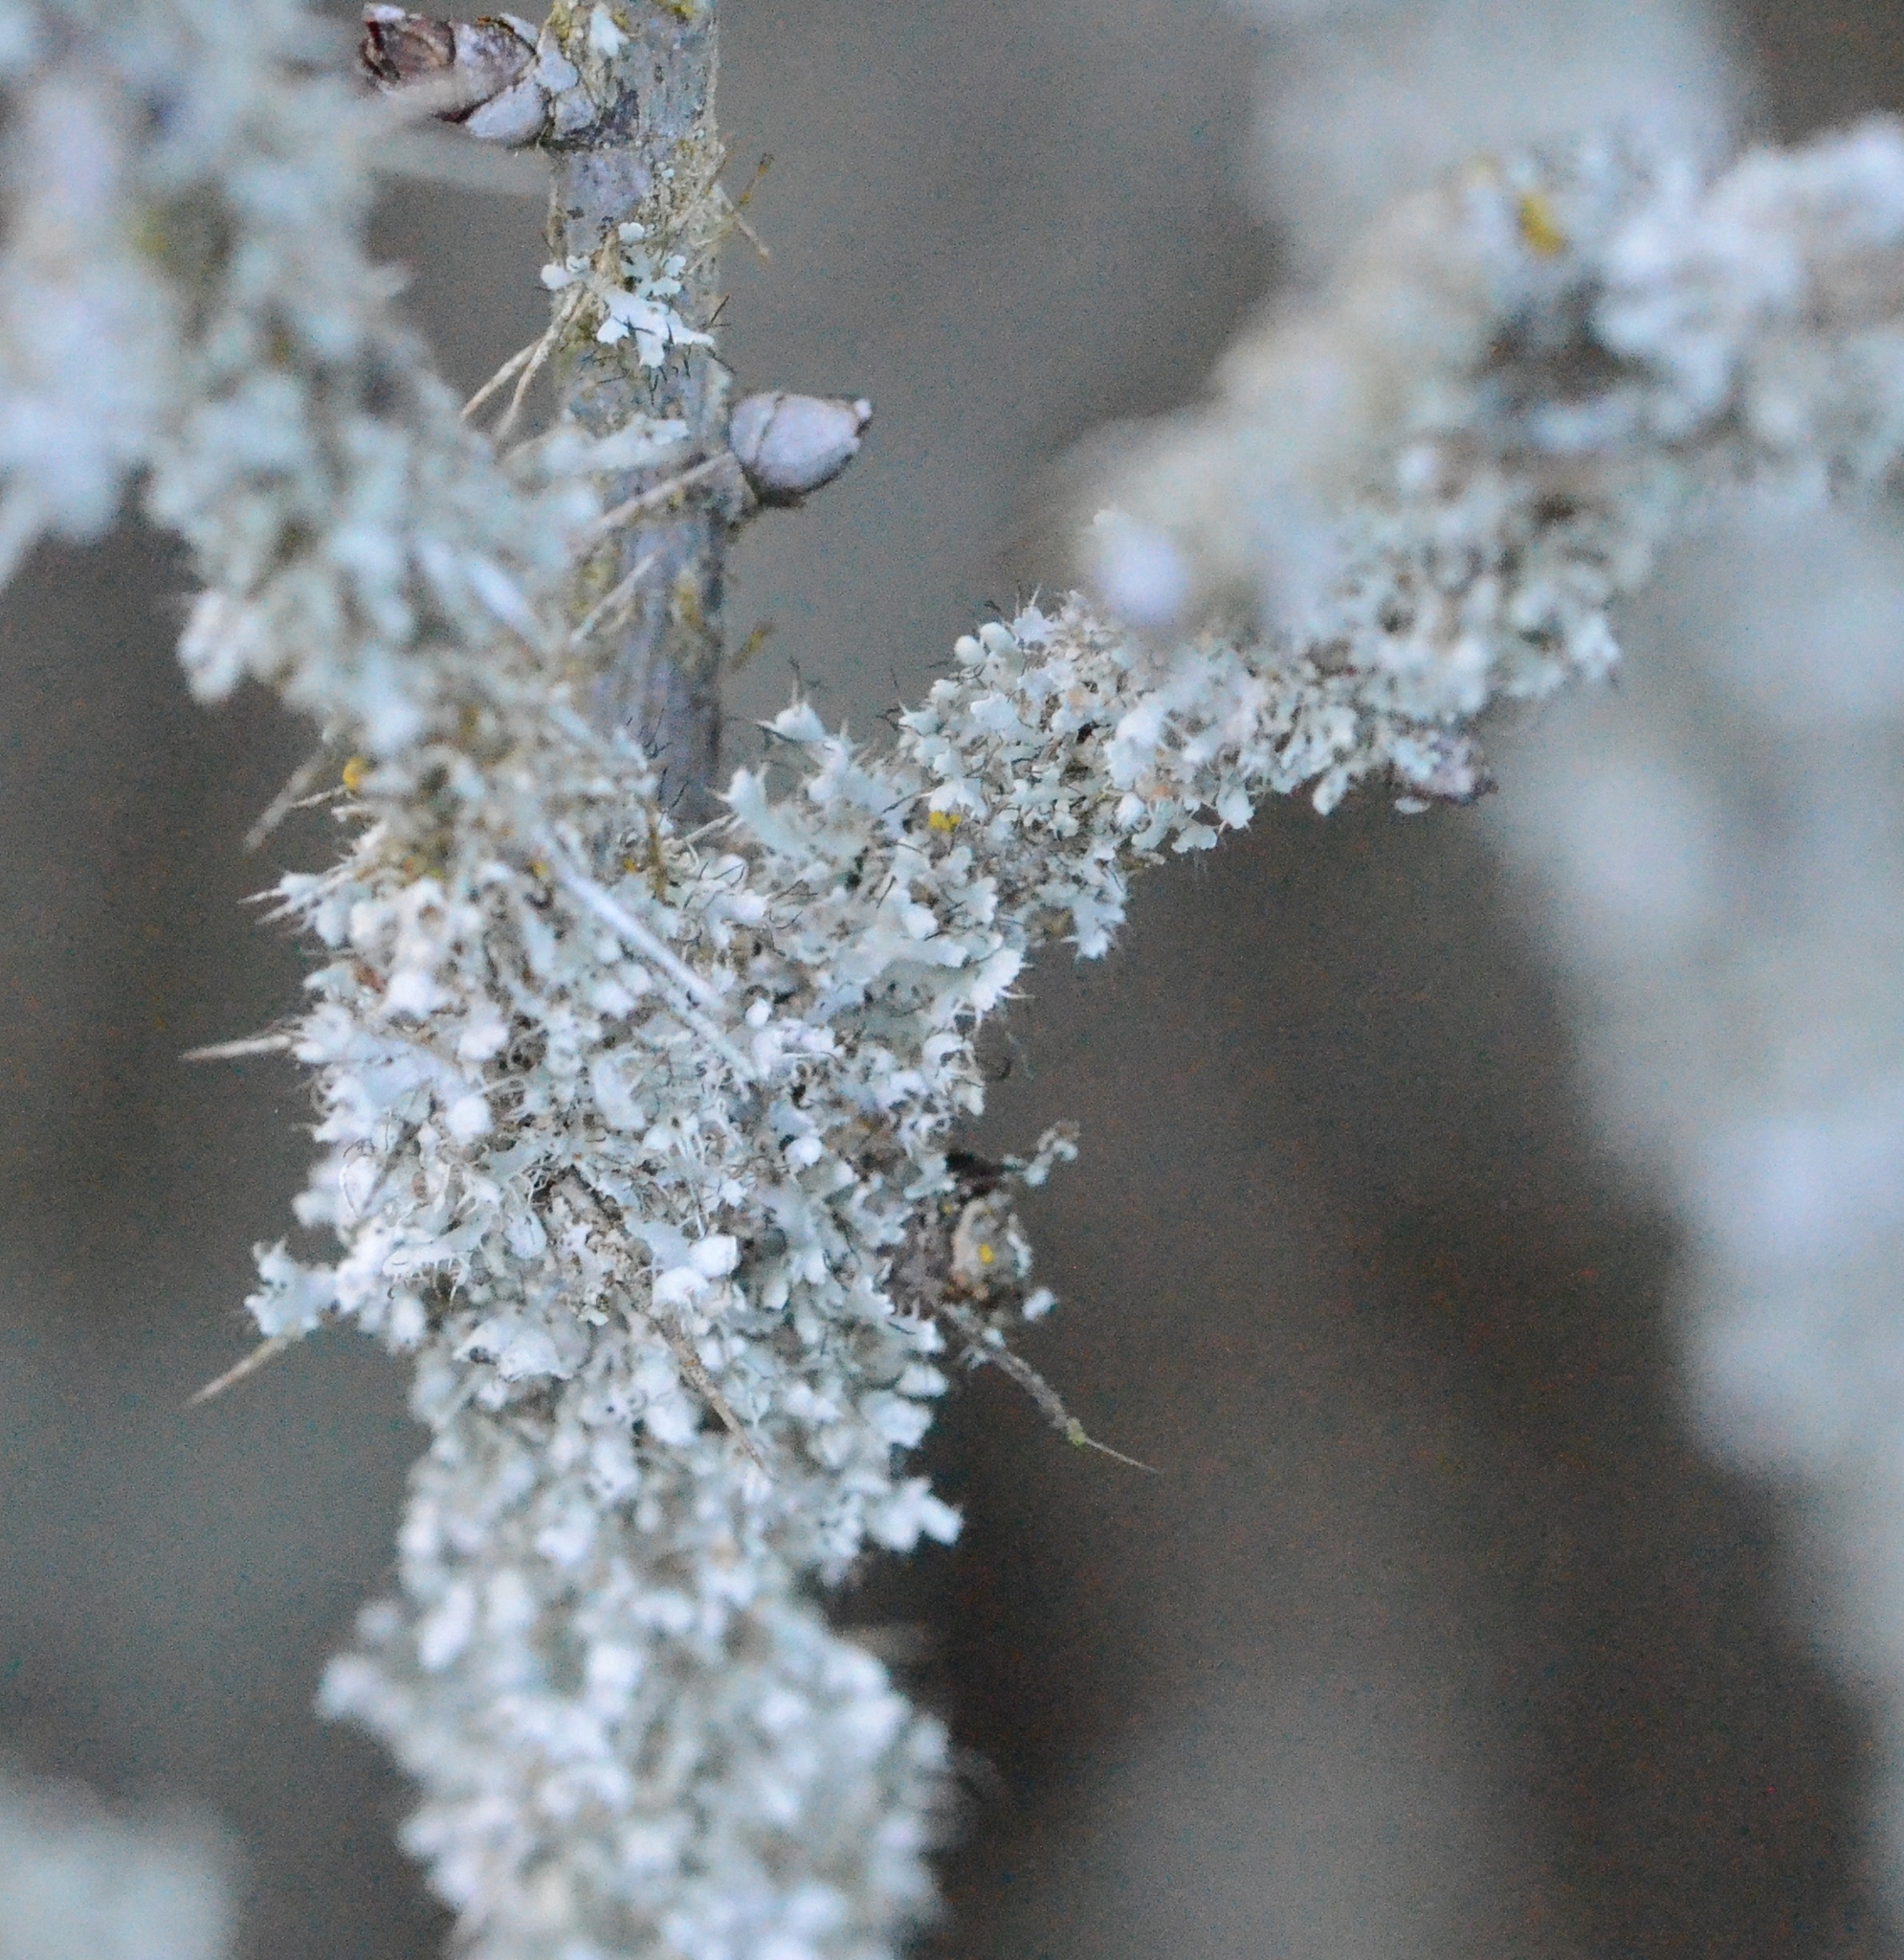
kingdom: Fungi
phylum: Ascomycota
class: Lecanoromycetes
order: Caliciales
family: Physciaceae
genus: Physcia
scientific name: Physcia adscendens
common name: Hooded rosette lichen
